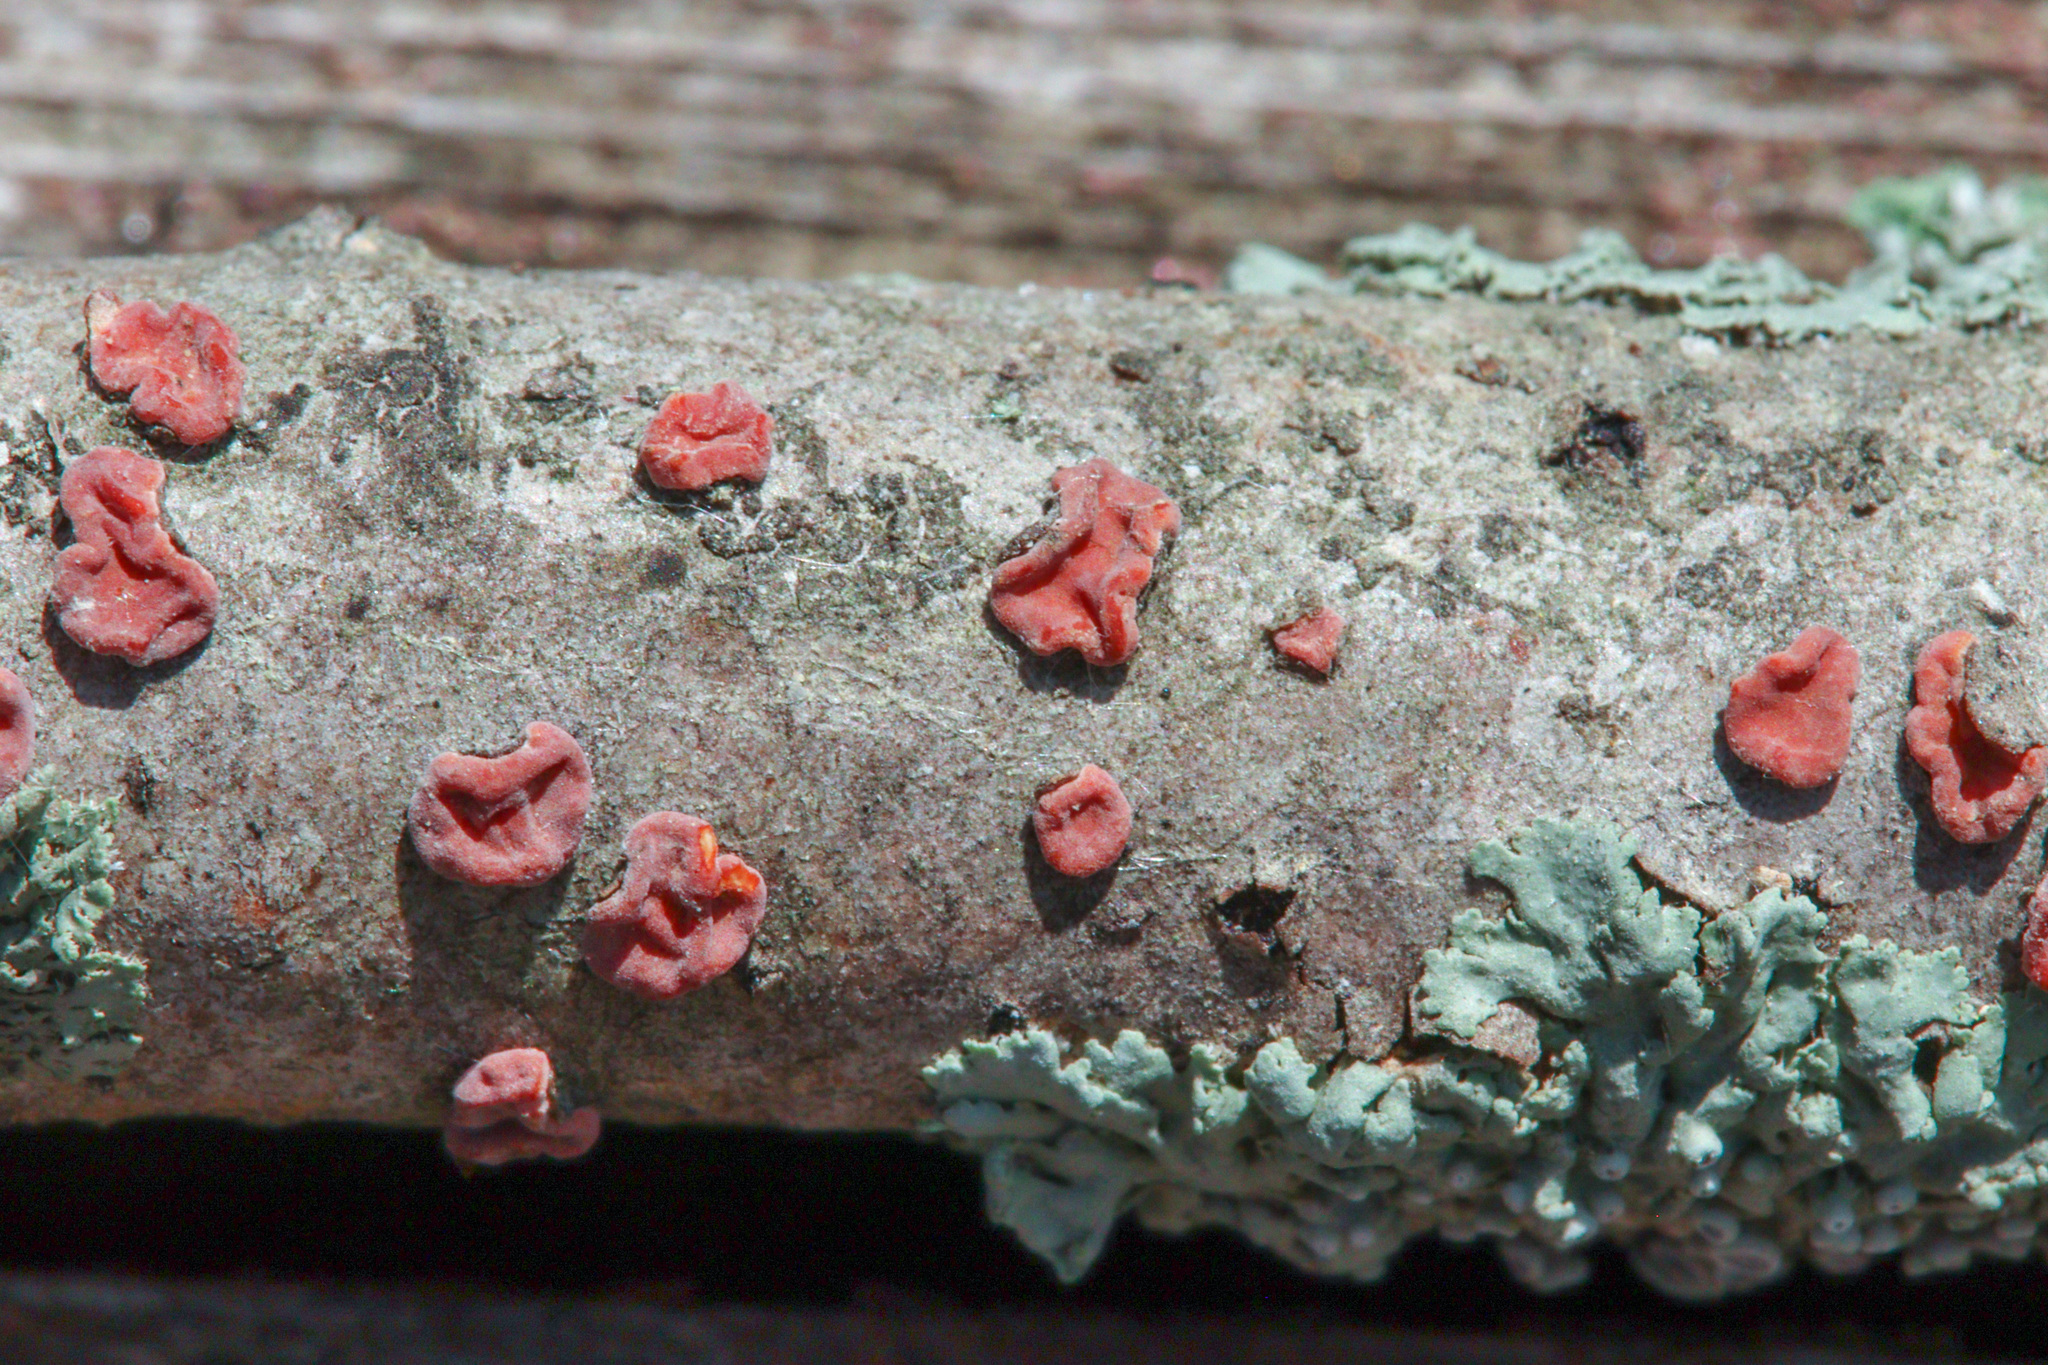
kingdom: Fungi
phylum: Basidiomycota
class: Agaricomycetes
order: Russulales
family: Peniophoraceae
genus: Peniophora
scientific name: Peniophora rufa
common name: Red tree brain fungus
